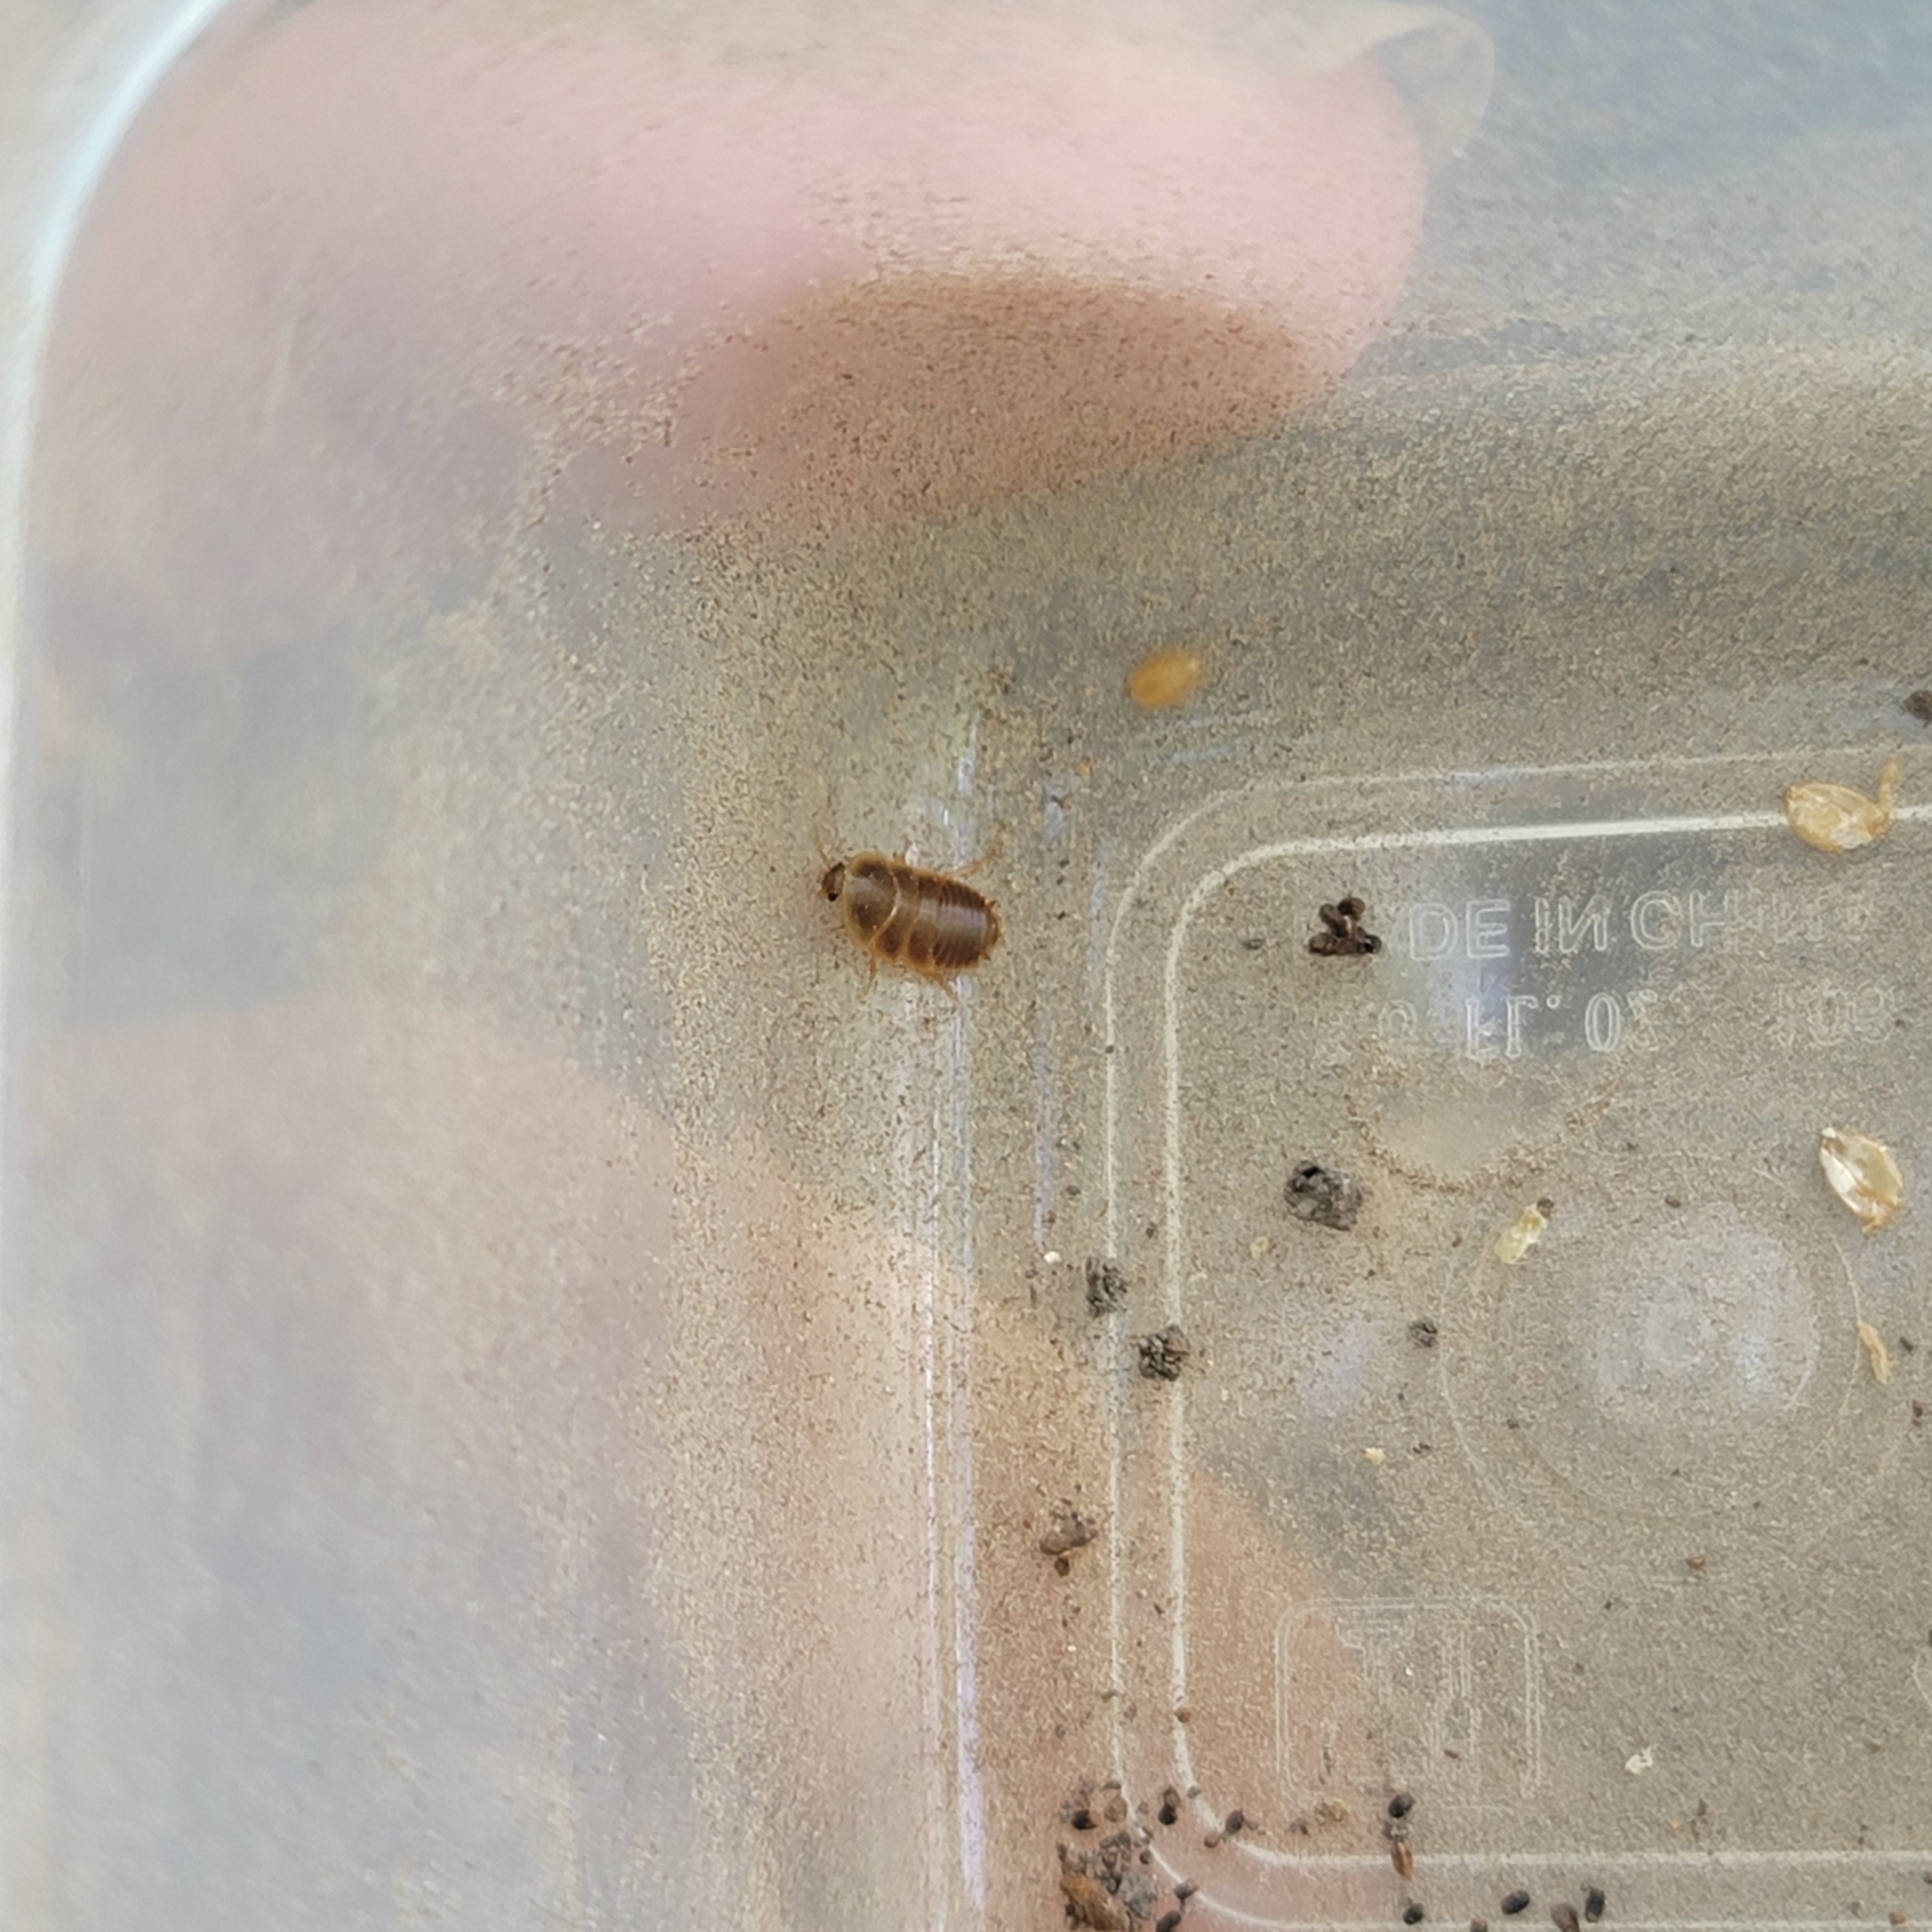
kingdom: Animalia
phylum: Arthropoda
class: Insecta
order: Blattodea
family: Corydiidae
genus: Compsodes
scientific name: Compsodes cucullatus
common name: Hooded cockroach
